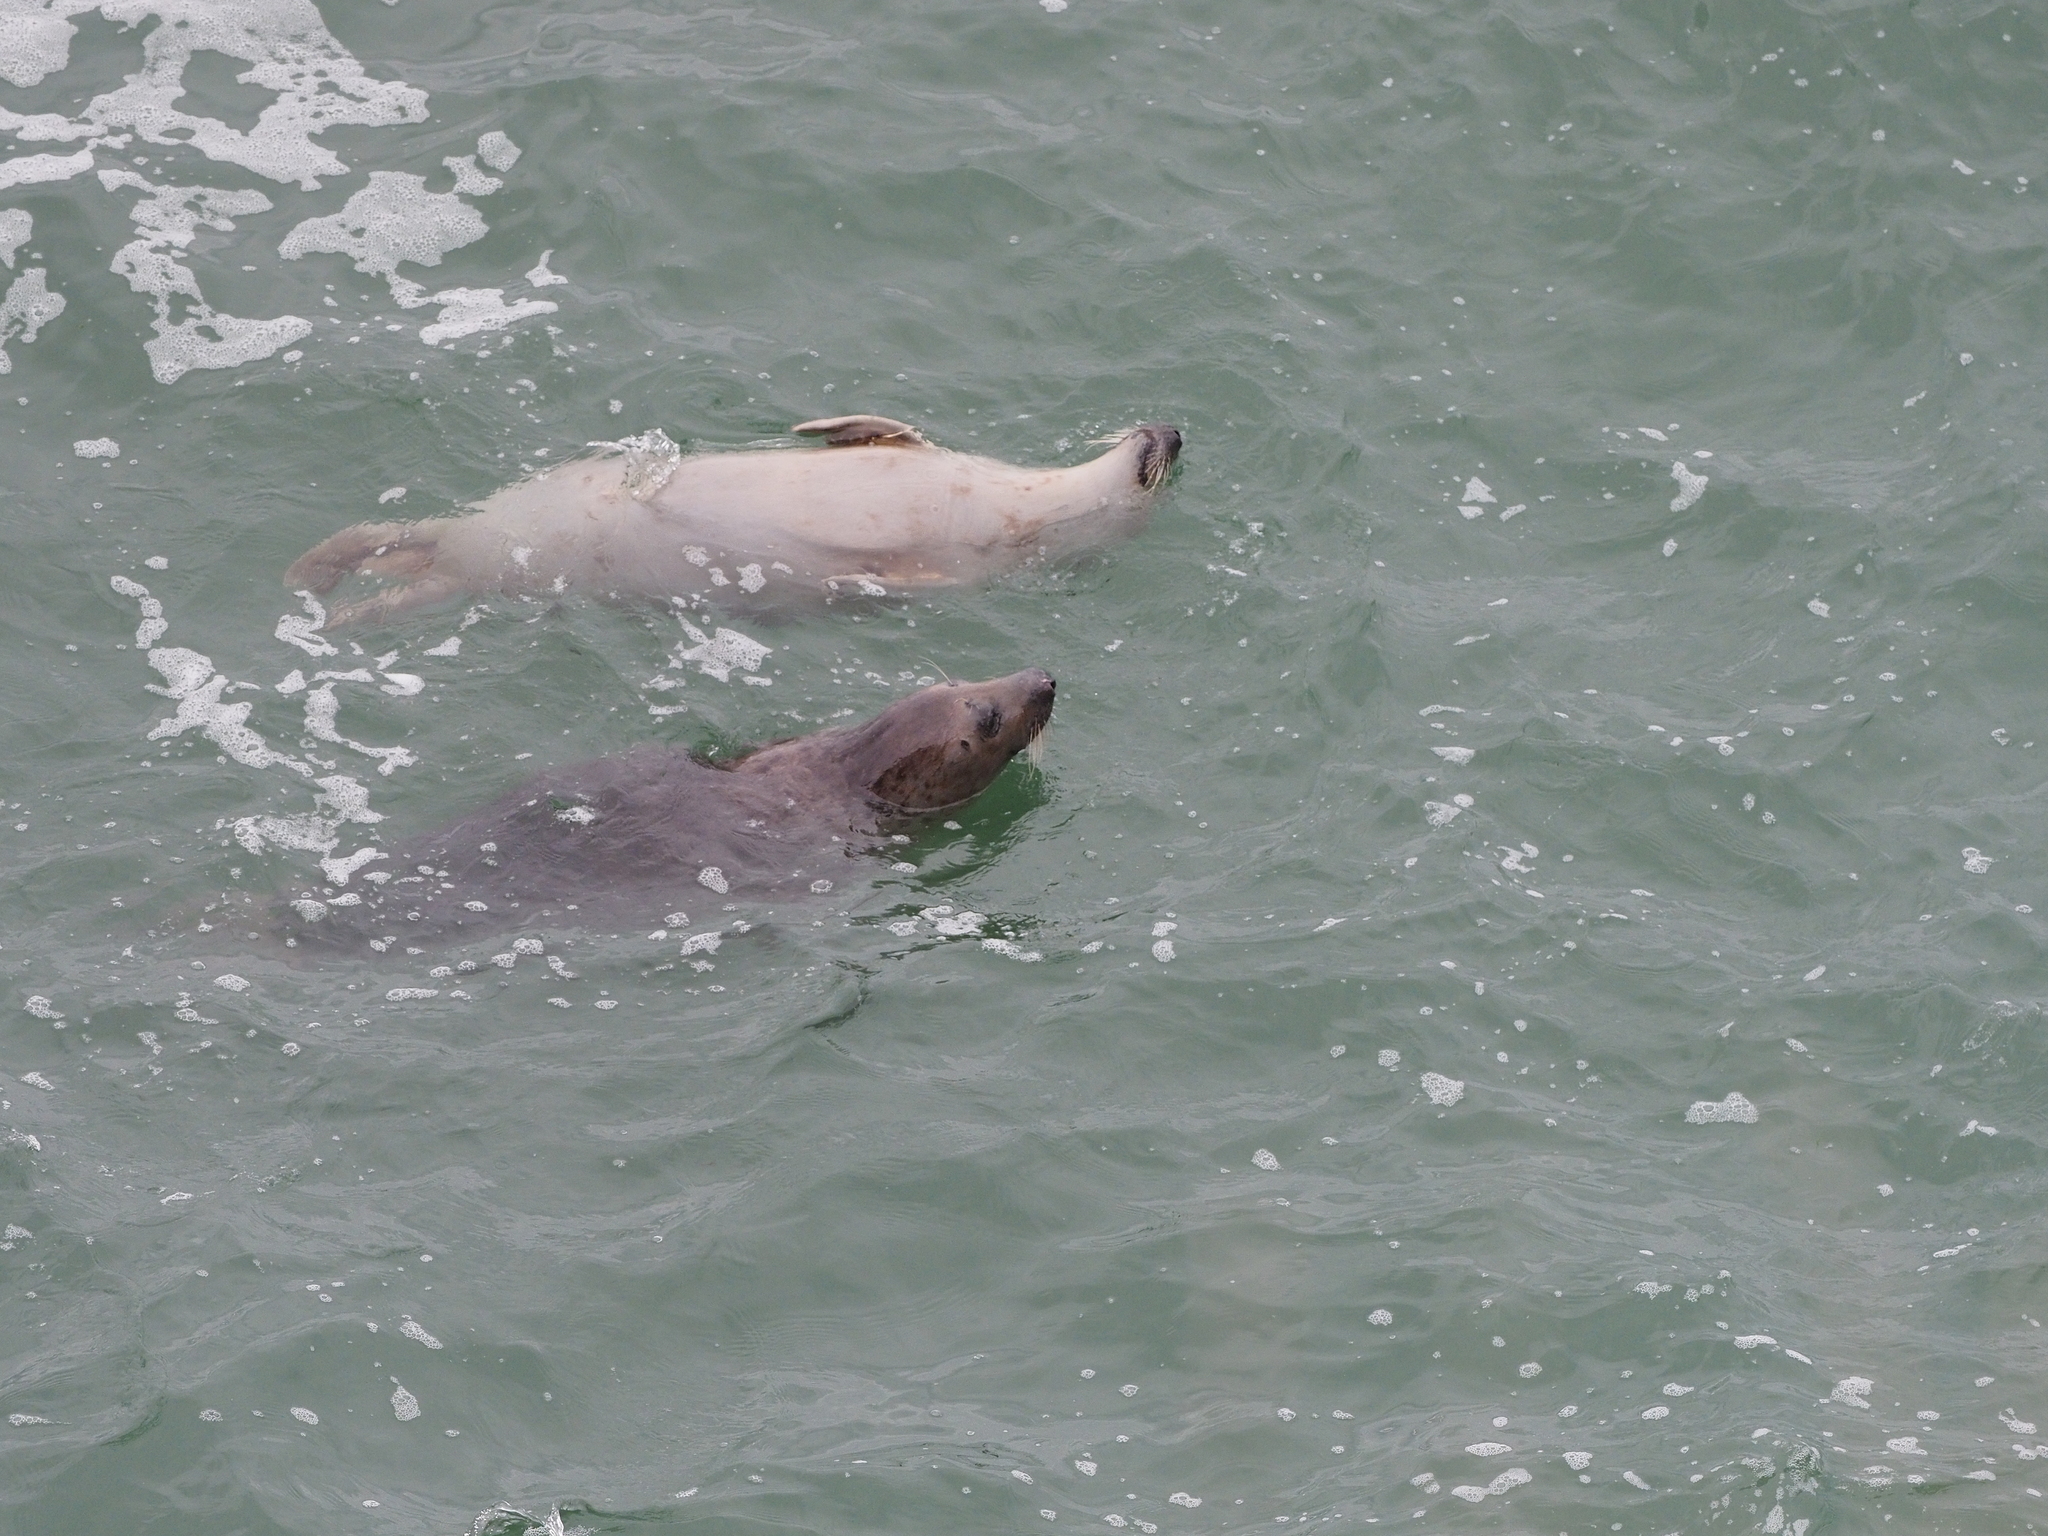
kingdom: Animalia
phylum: Chordata
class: Mammalia
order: Carnivora
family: Phocidae
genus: Halichoerus
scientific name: Halichoerus grypus
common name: Grey seal
